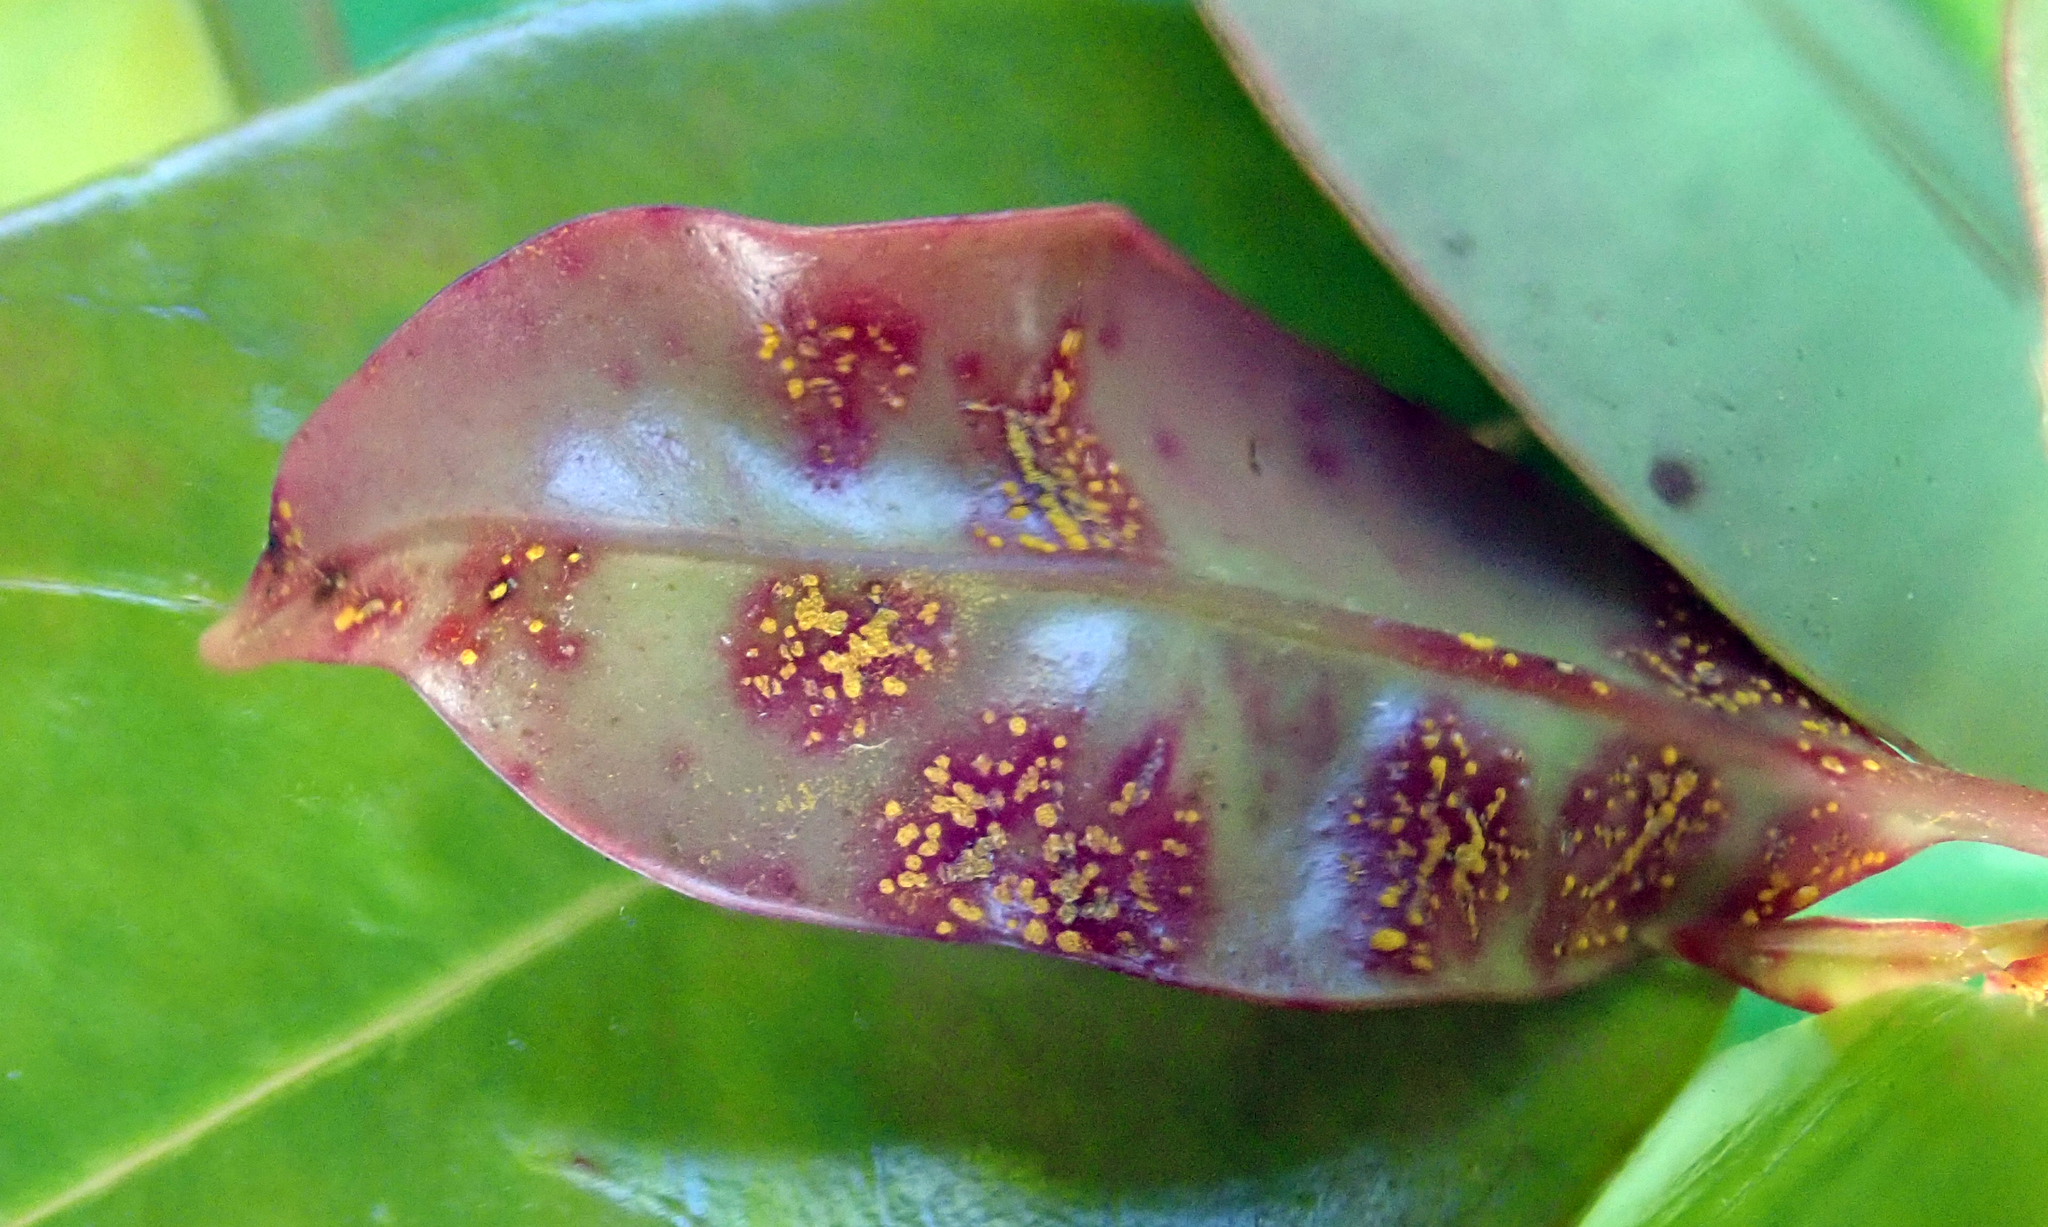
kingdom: Fungi
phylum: Basidiomycota
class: Pucciniomycetes
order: Pucciniales
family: Sphaerophragmiaceae
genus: Austropuccinia
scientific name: Austropuccinia psidii
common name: Myrtle rust
